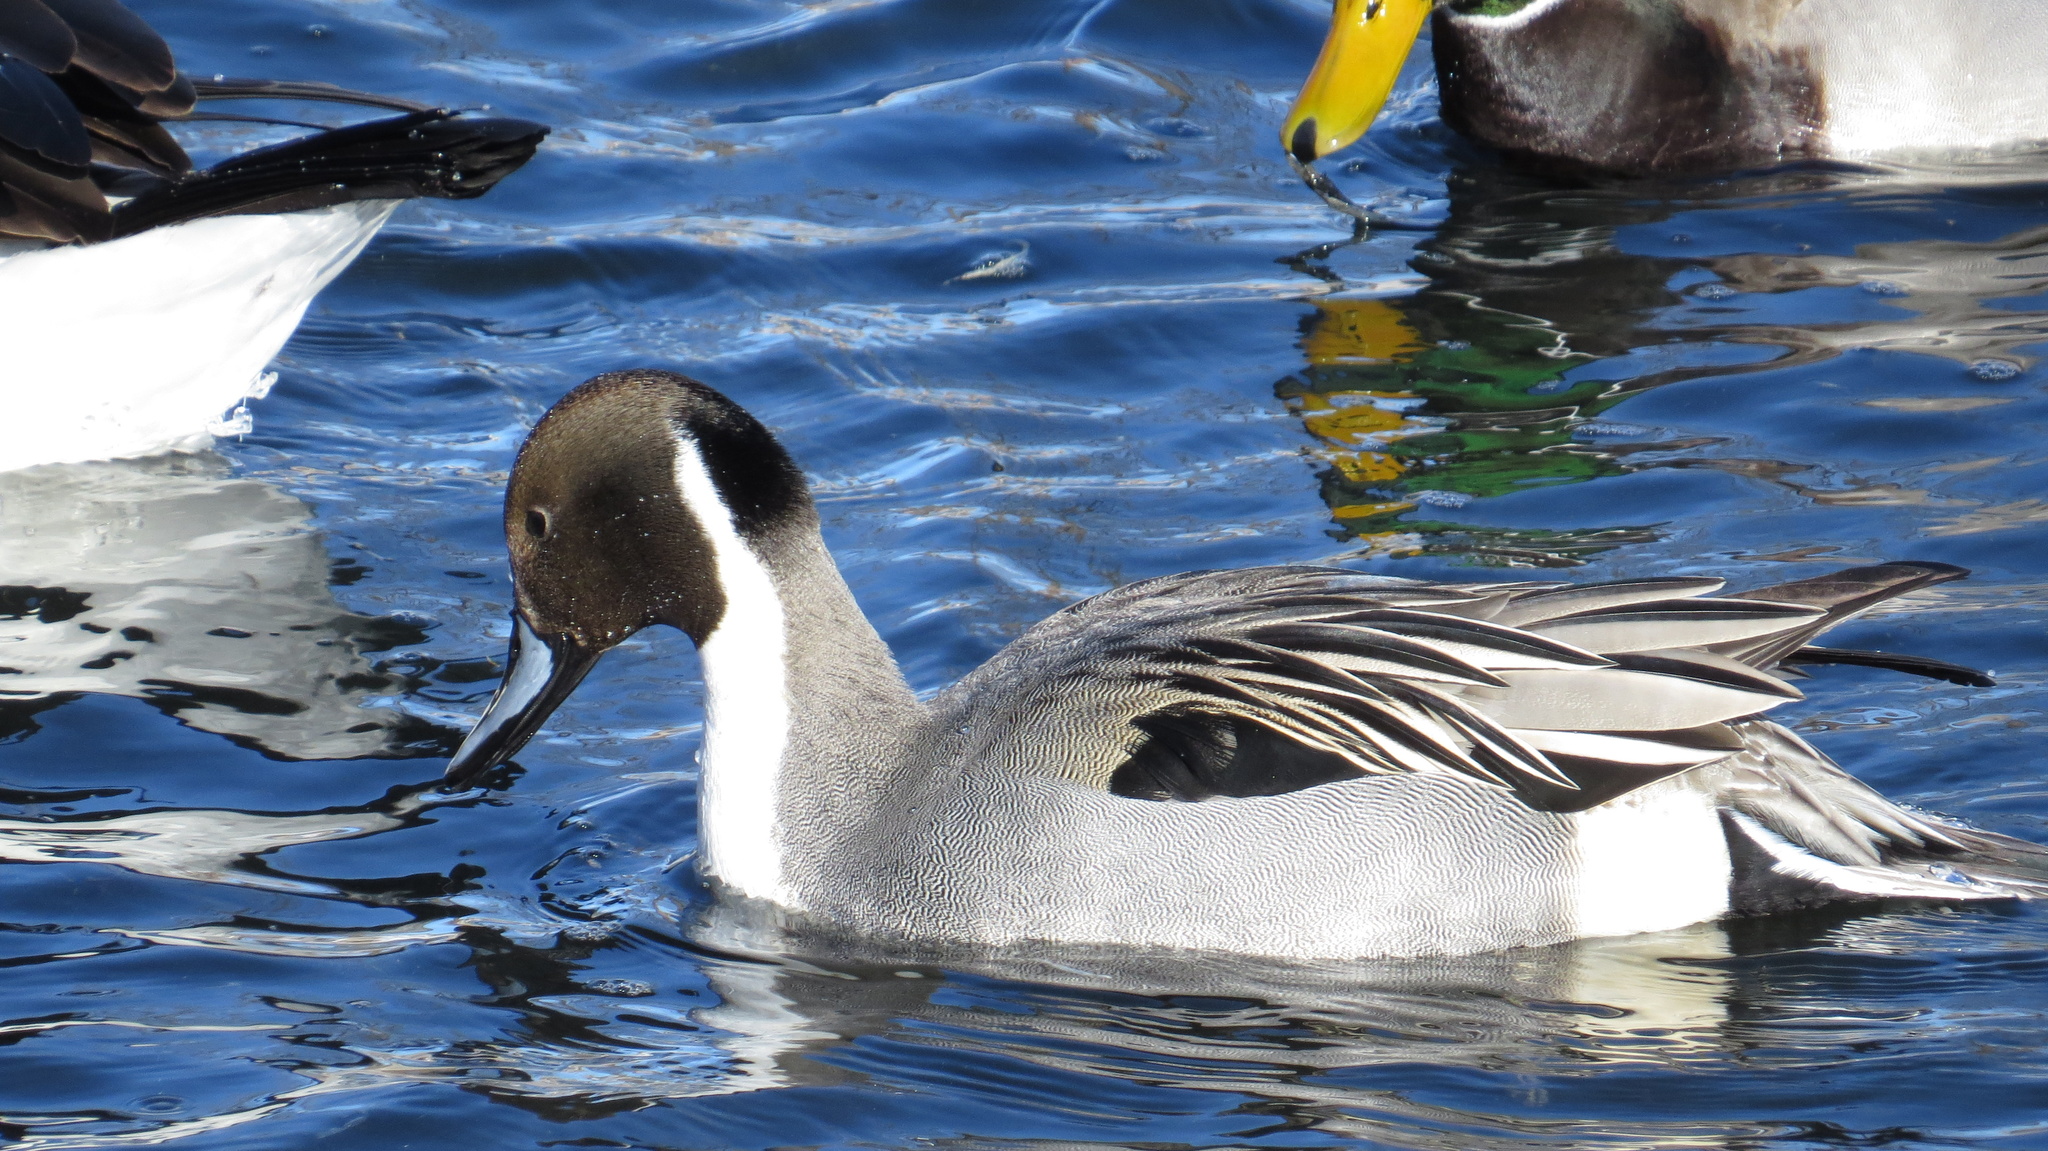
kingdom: Animalia
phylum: Chordata
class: Aves
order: Anseriformes
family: Anatidae
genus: Anas
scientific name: Anas acuta
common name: Northern pintail
